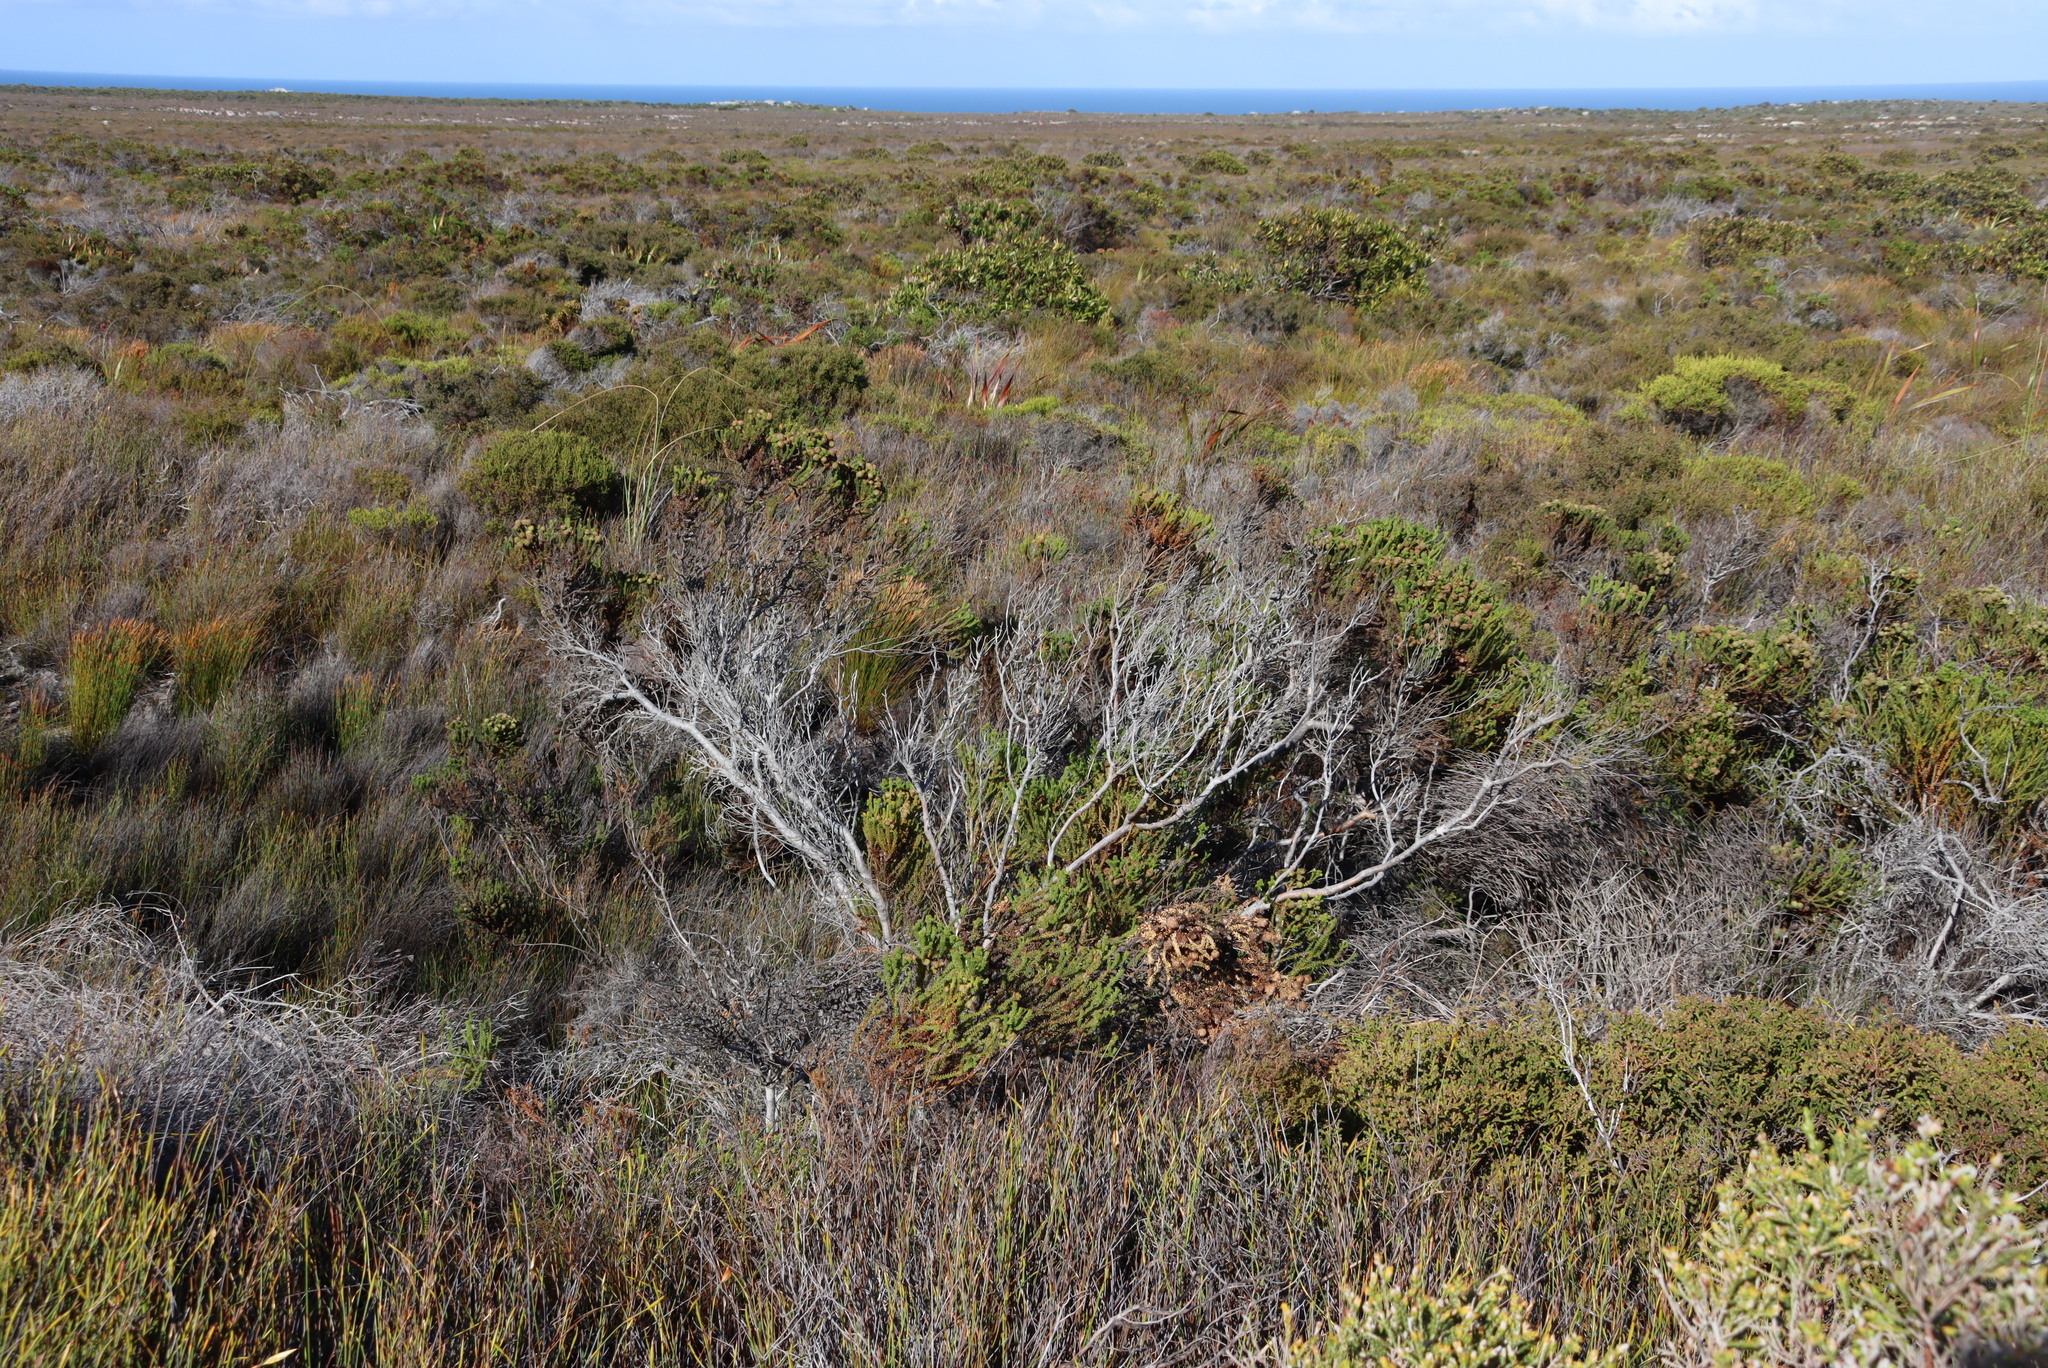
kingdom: Plantae
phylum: Tracheophyta
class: Magnoliopsida
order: Bruniales
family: Bruniaceae
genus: Berzelia
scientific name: Berzelia abrotanoides
